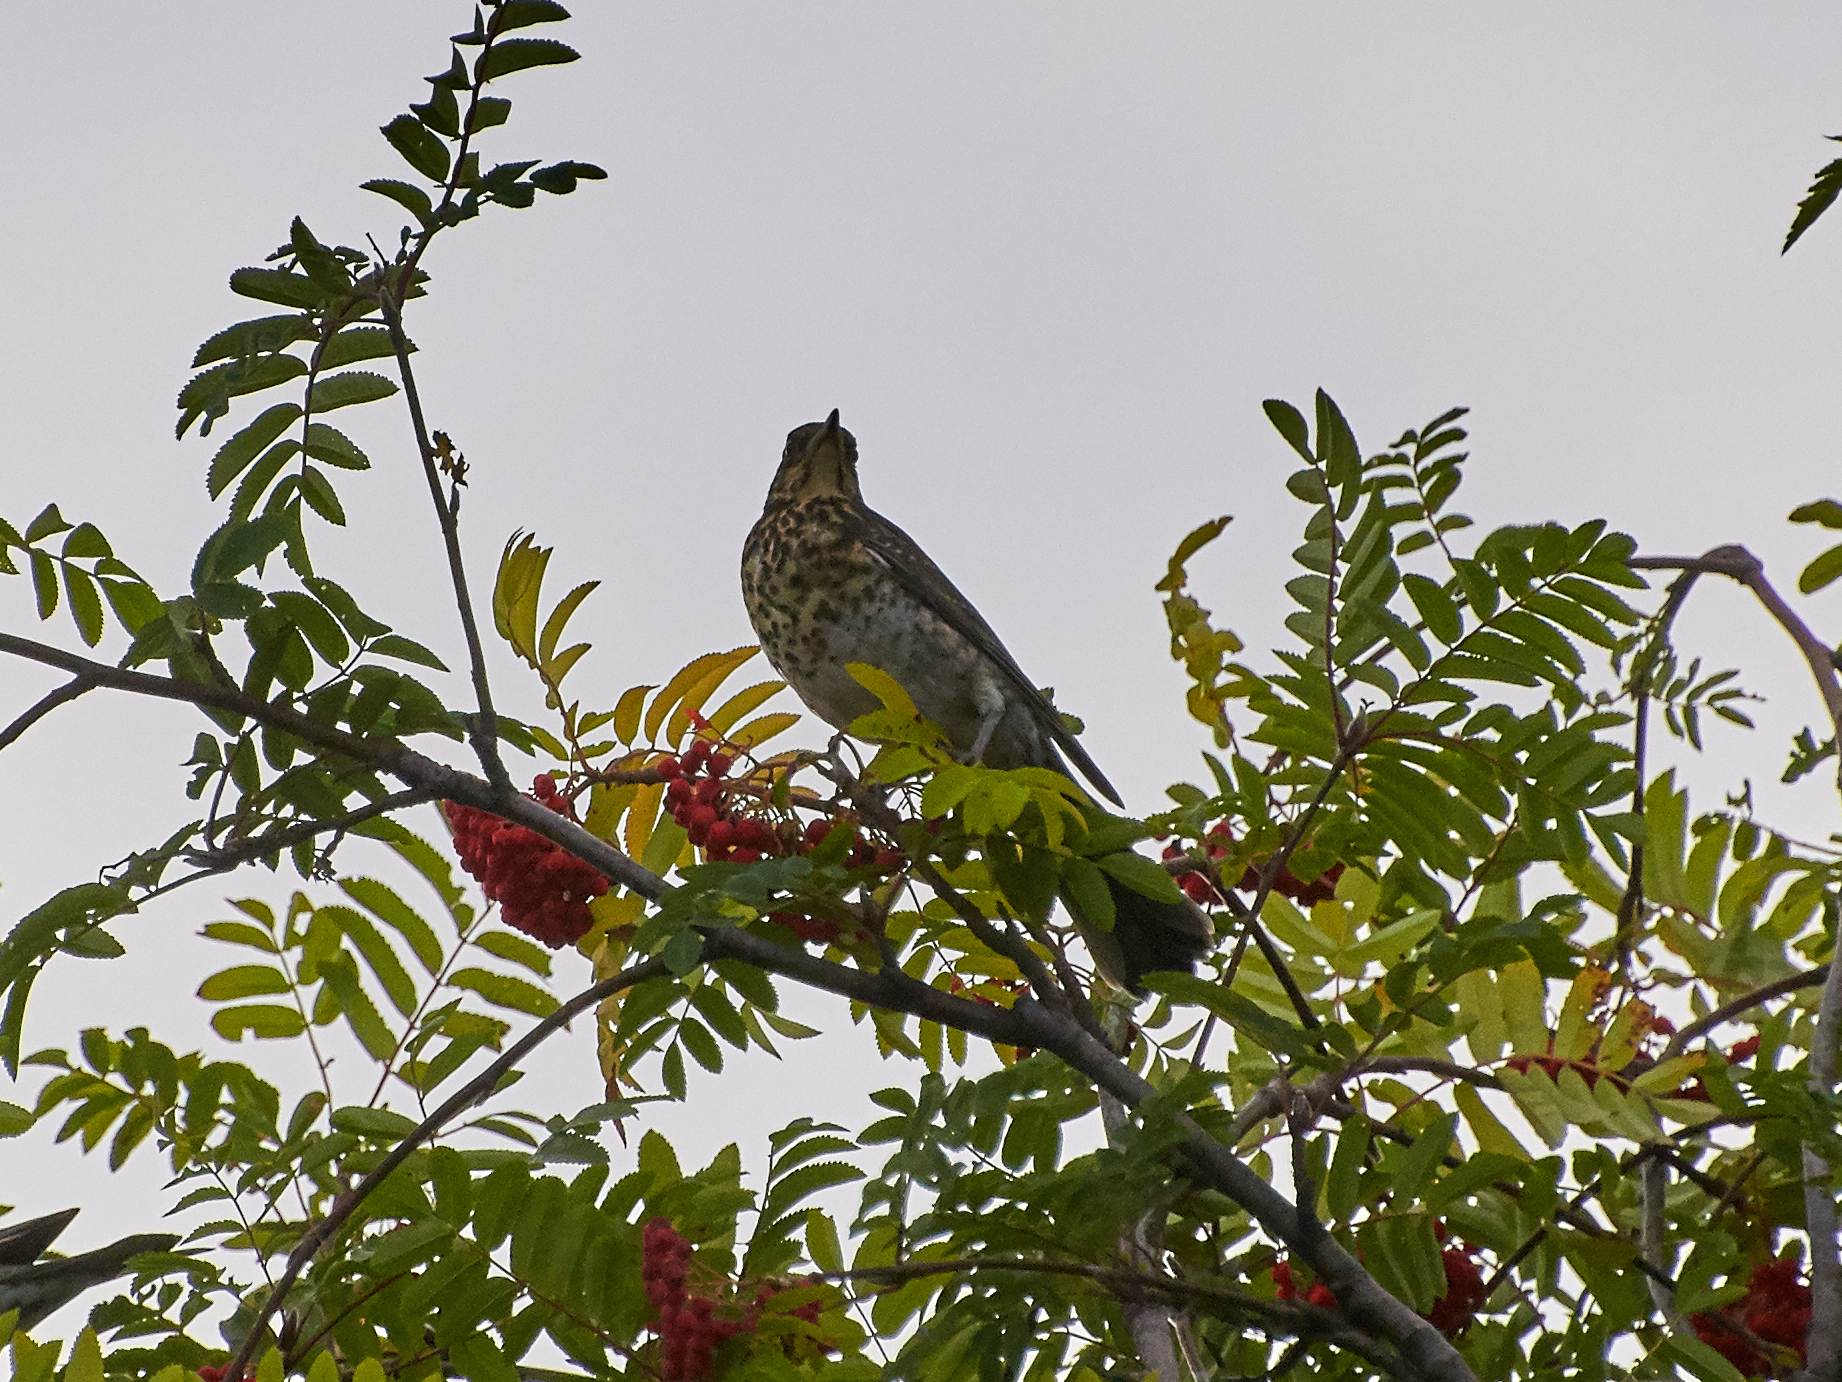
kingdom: Animalia
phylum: Chordata
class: Aves
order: Passeriformes
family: Turdidae
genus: Turdus
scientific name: Turdus pilaris
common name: Fieldfare
